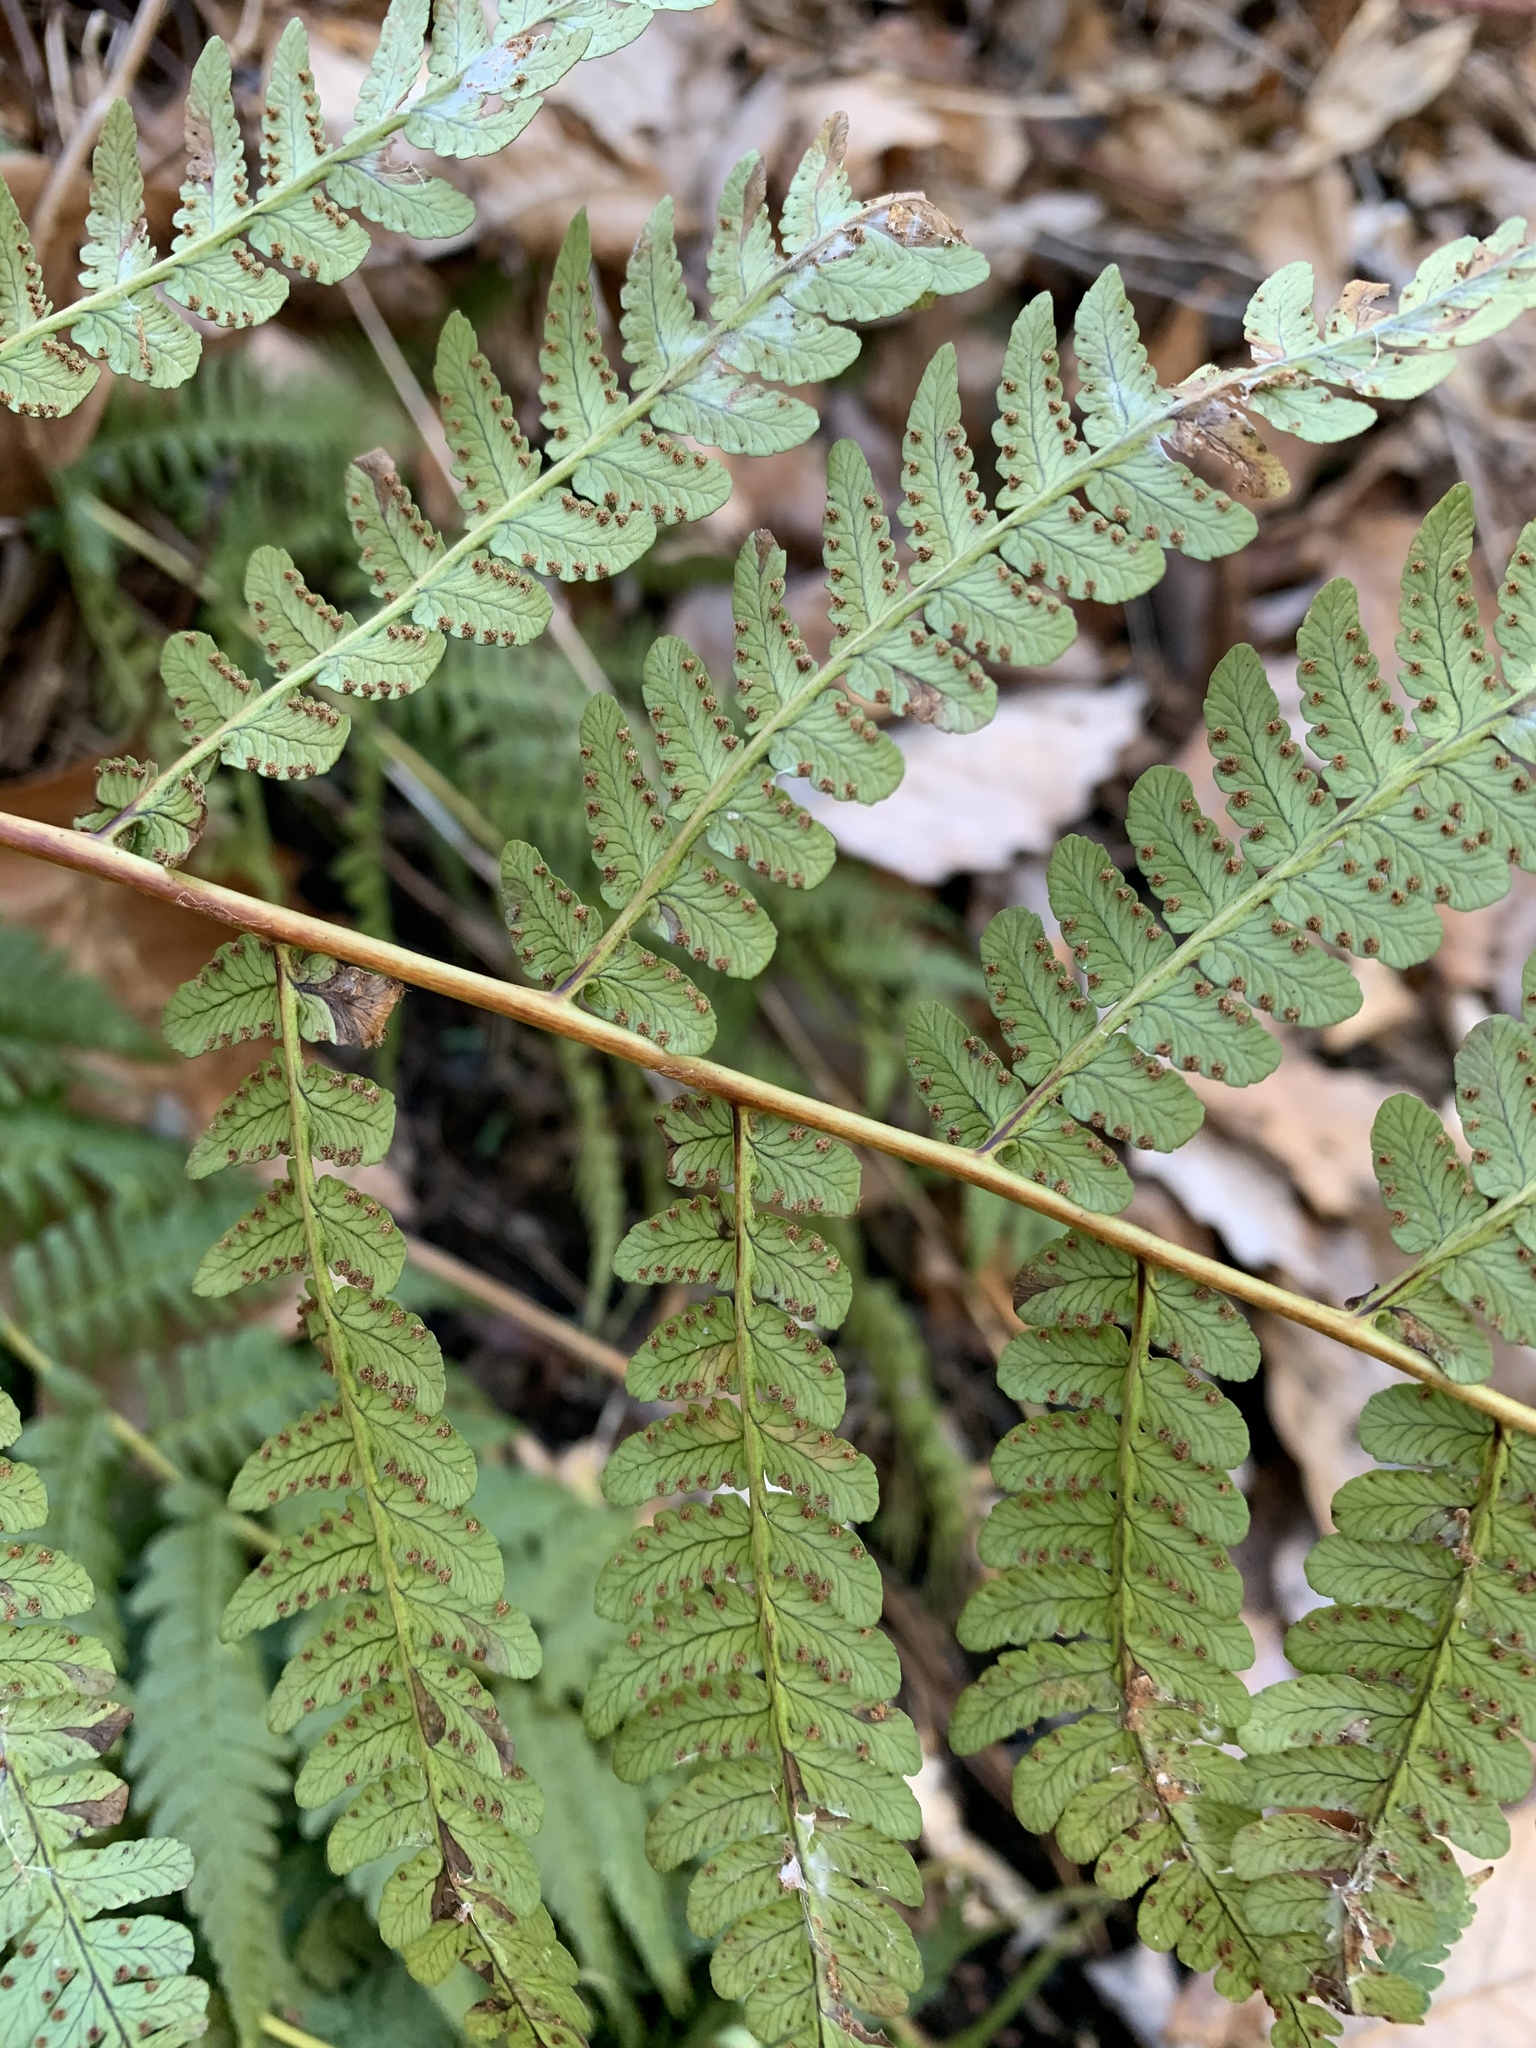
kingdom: Plantae
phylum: Tracheophyta
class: Polypodiopsida
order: Polypodiales
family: Dryopteridaceae
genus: Dryopteris
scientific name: Dryopteris marginalis
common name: Marginal wood fern
